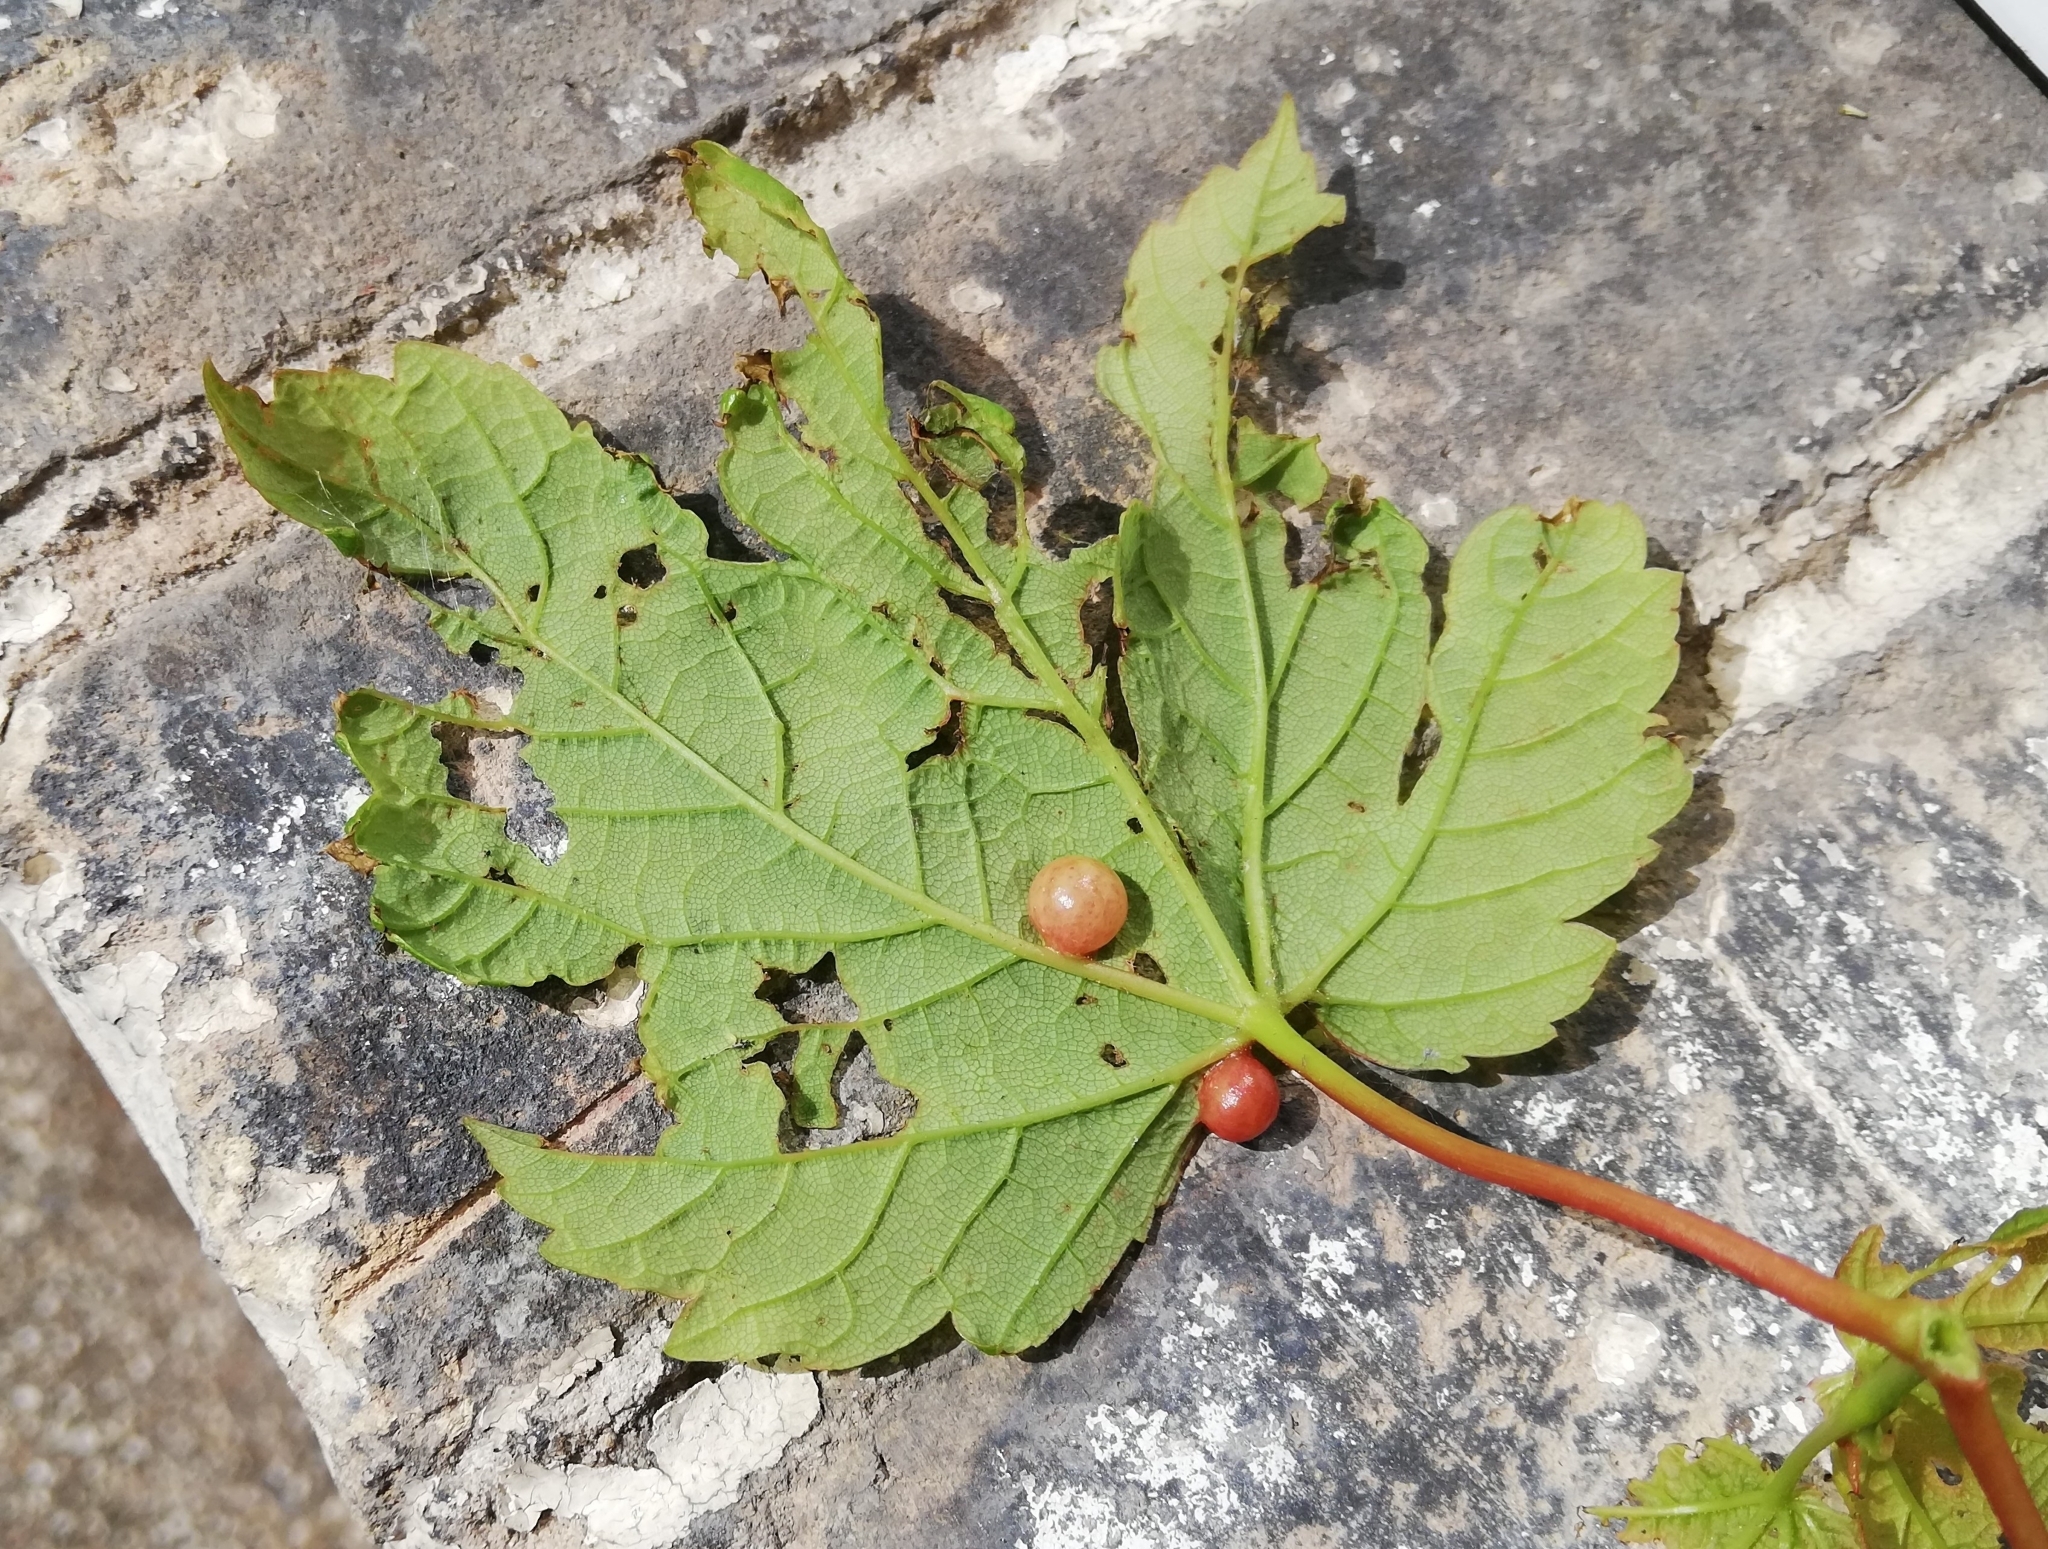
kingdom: Animalia
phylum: Arthropoda
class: Insecta
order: Hymenoptera
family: Cynipidae
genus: Pediaspis
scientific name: Pediaspis aceris
